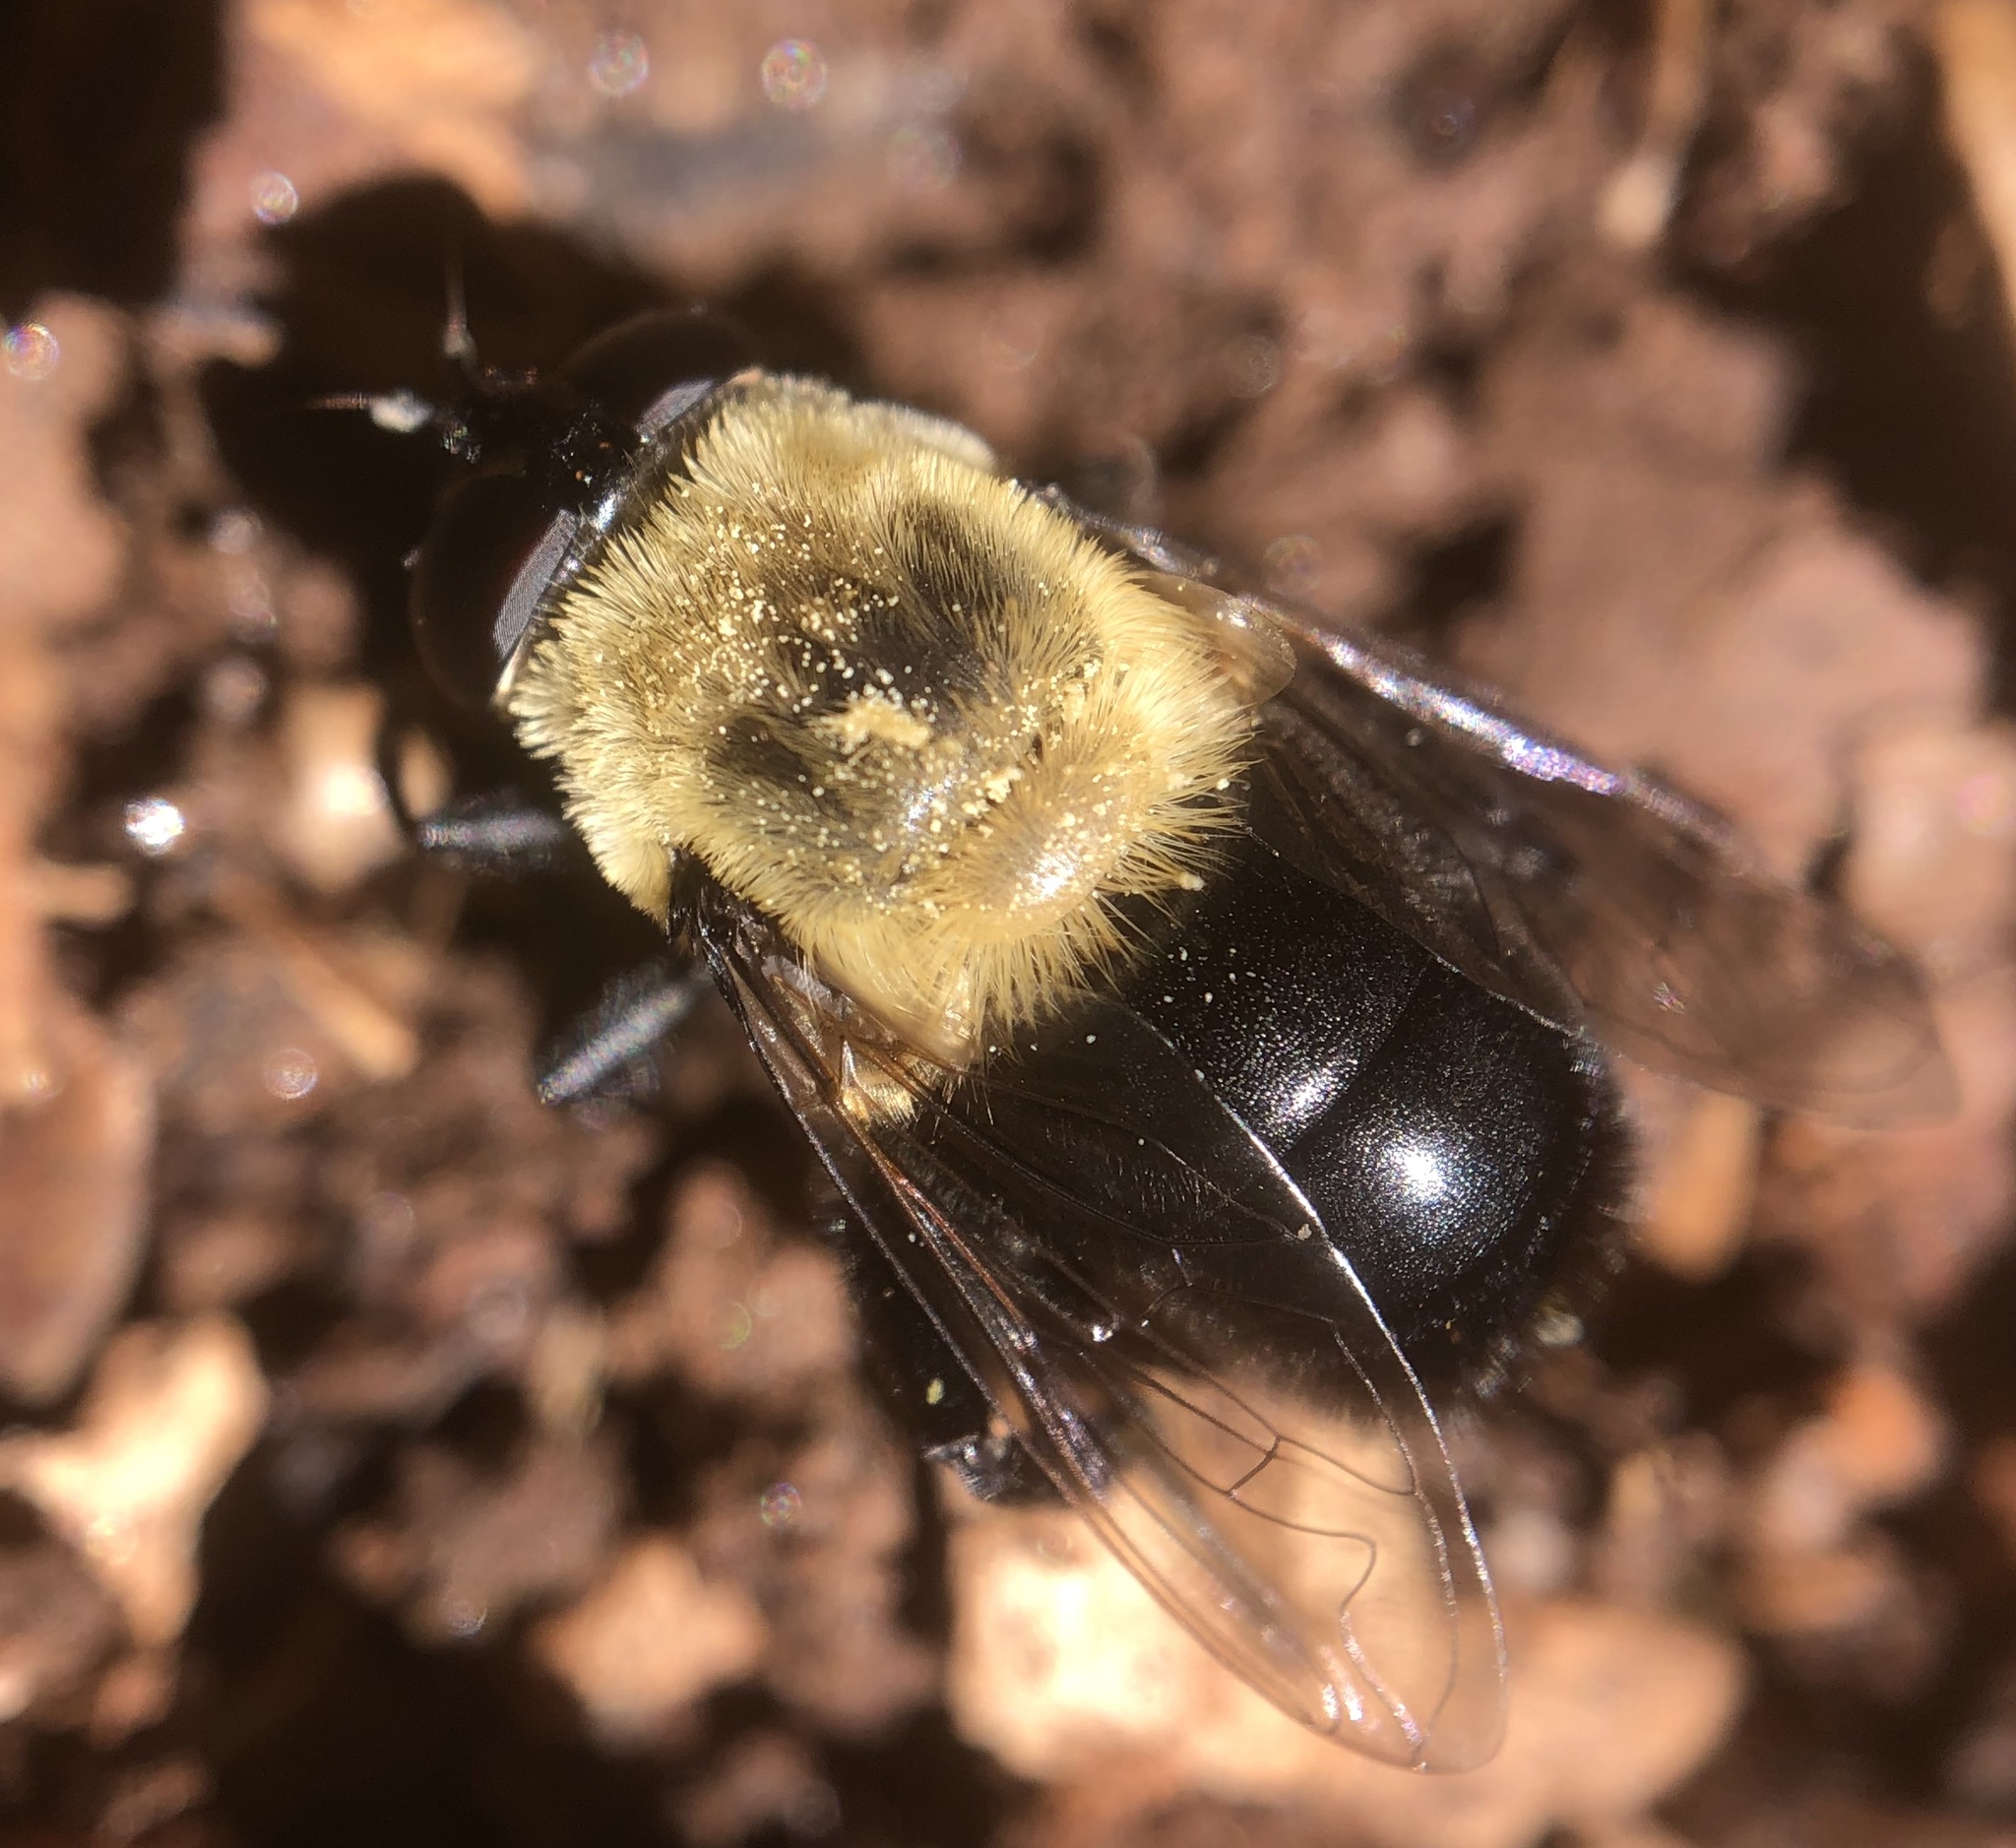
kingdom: Animalia
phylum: Arthropoda
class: Insecta
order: Diptera
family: Syrphidae
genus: Imatisma
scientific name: Imatisma bautias
